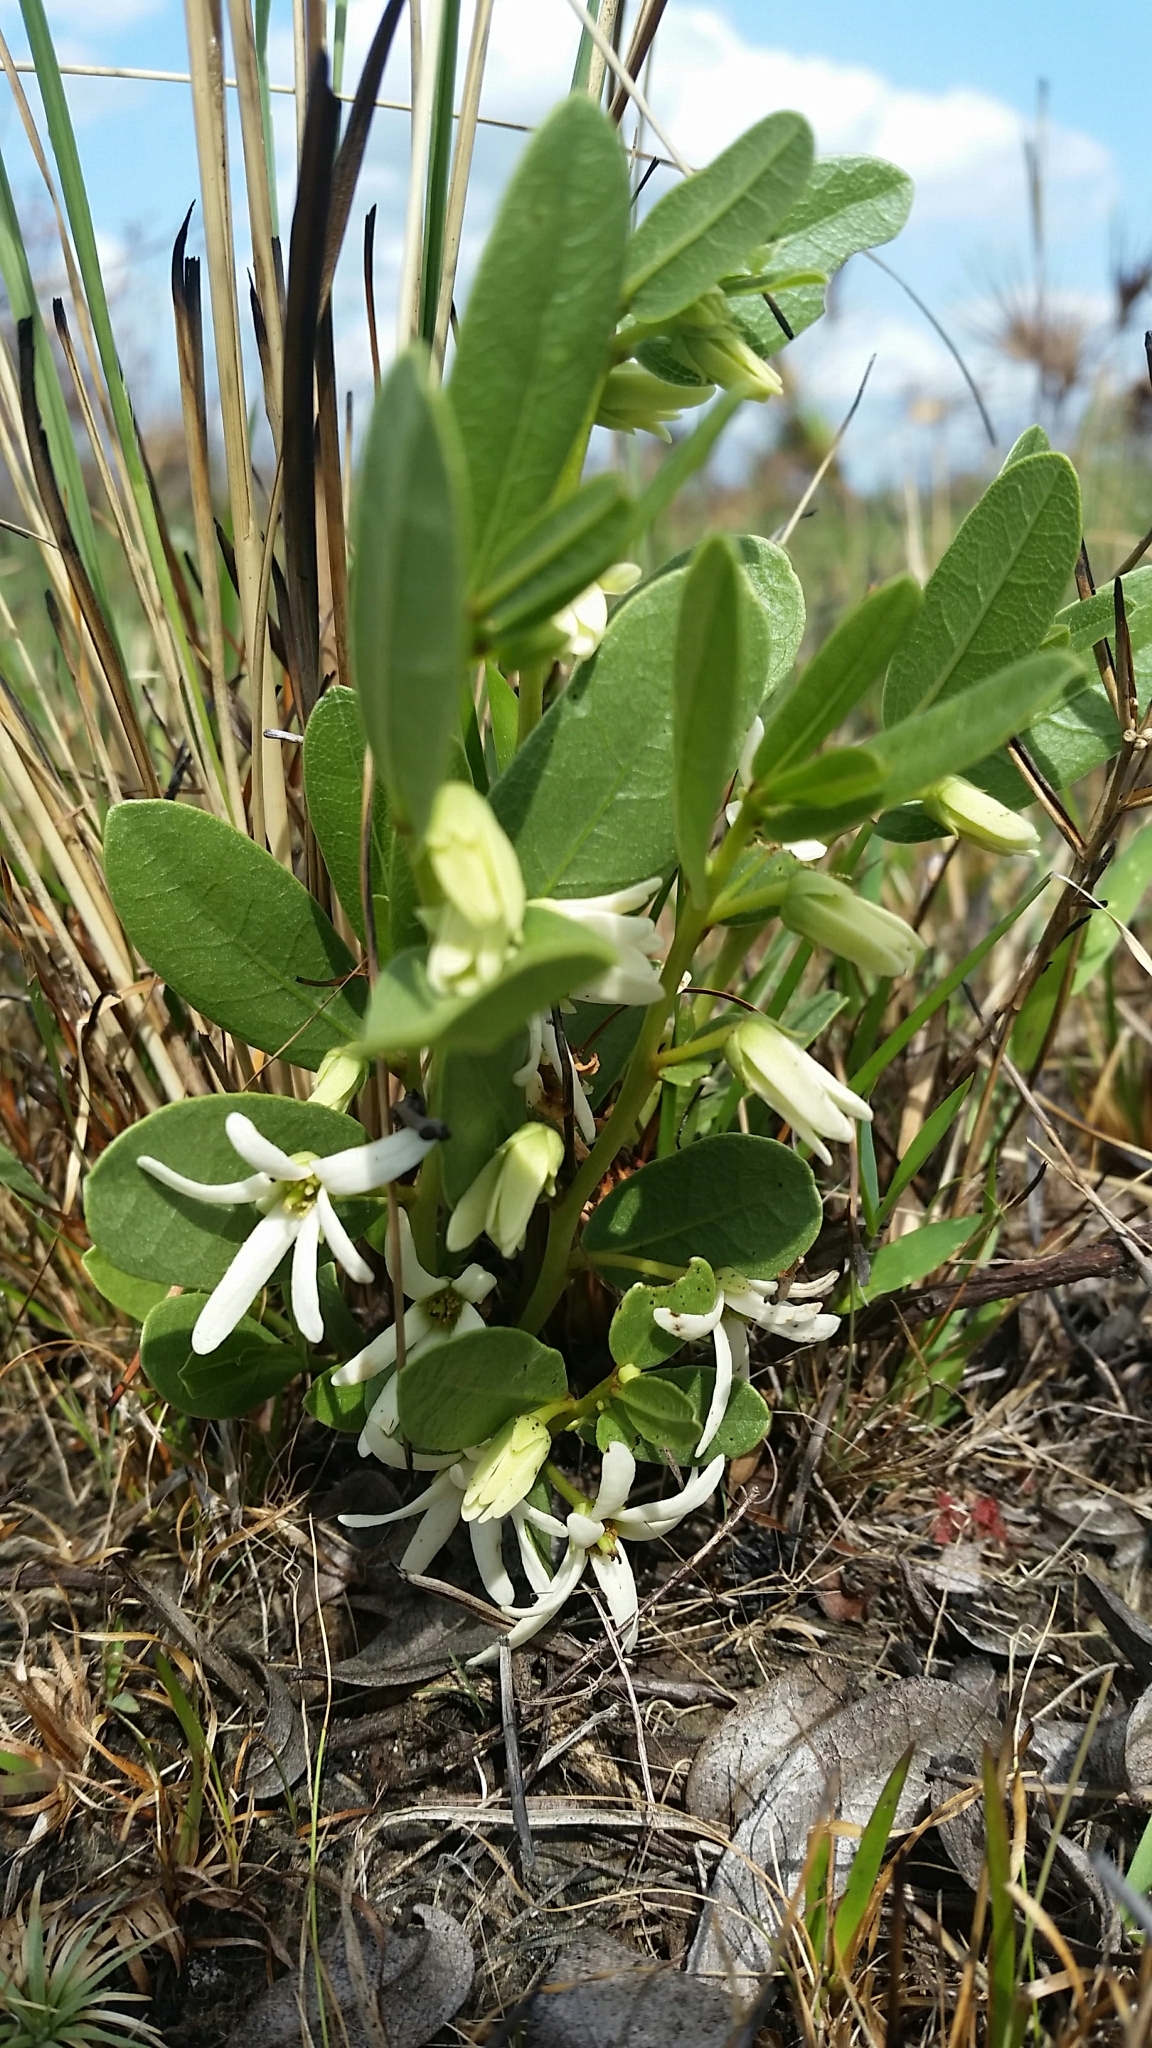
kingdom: Plantae
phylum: Tracheophyta
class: Magnoliopsida
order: Magnoliales
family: Annonaceae
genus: Asimina
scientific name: Asimina pulchella
